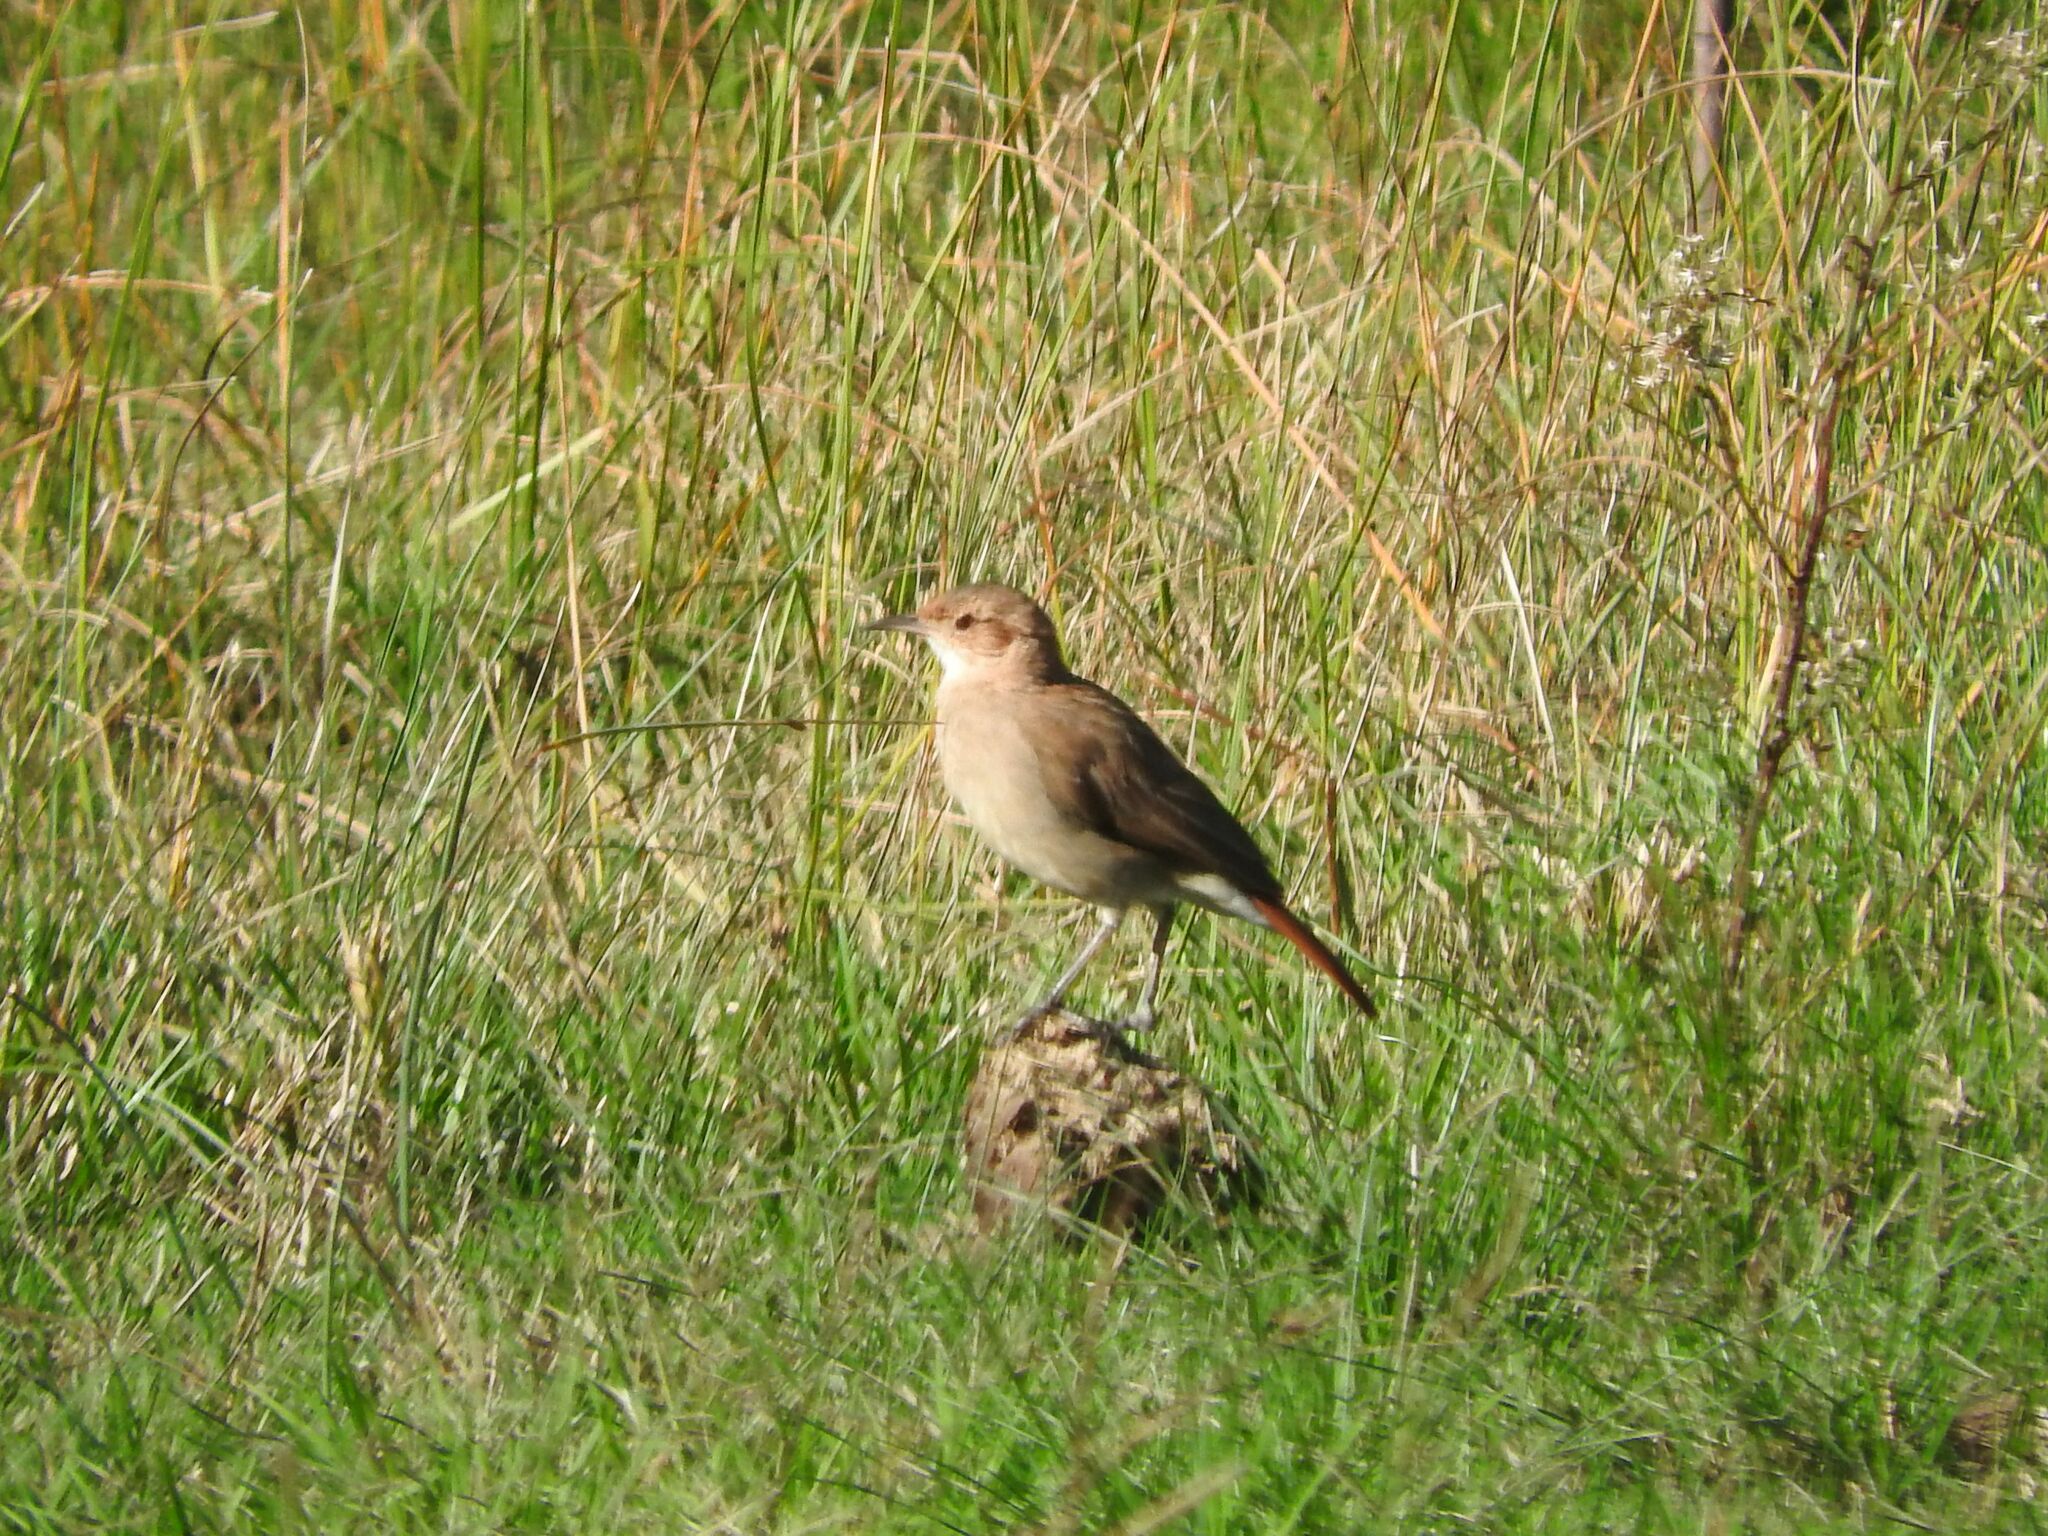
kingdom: Animalia
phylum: Chordata
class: Aves
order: Passeriformes
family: Furnariidae
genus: Furnarius
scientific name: Furnarius rufus
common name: Rufous hornero
